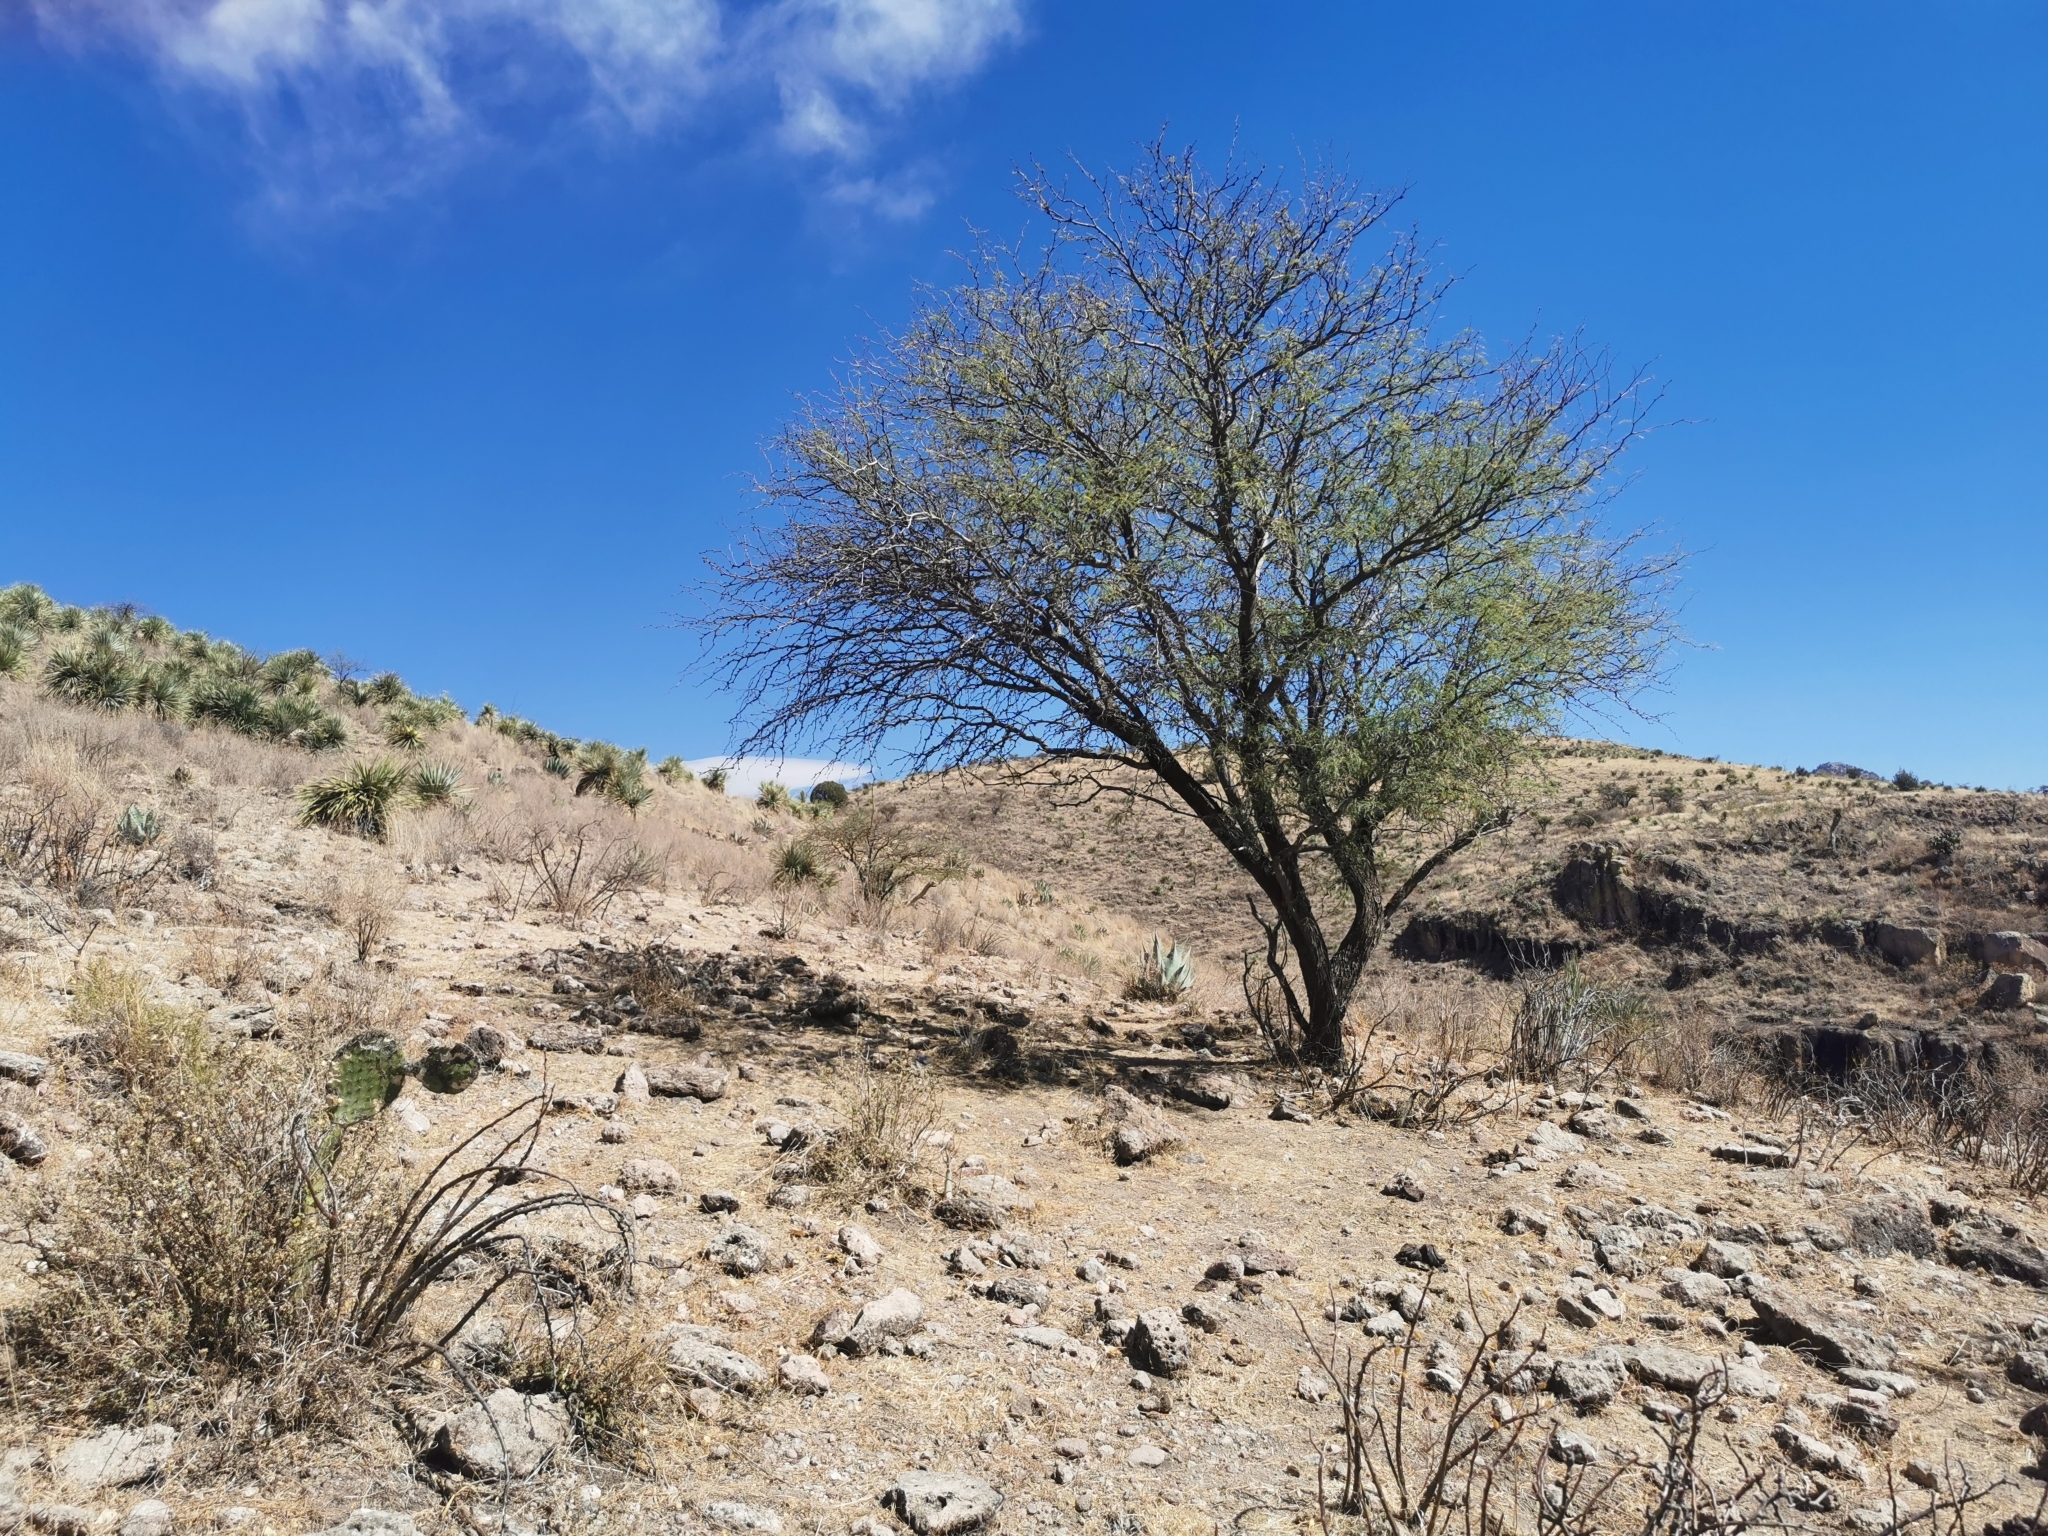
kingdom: Plantae
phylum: Tracheophyta
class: Magnoliopsida
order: Fabales
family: Fabaceae
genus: Prosopis
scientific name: Prosopis laevigata
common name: Smooth mesquite
